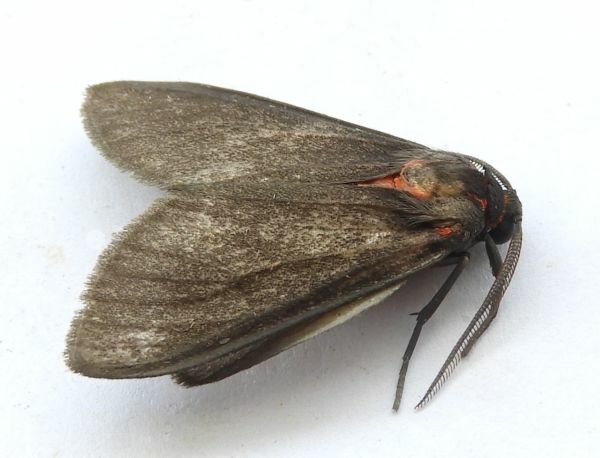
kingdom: Animalia
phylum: Arthropoda
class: Insecta
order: Lepidoptera
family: Erebidae
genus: Euchaetes
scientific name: Euchaetes fusca
